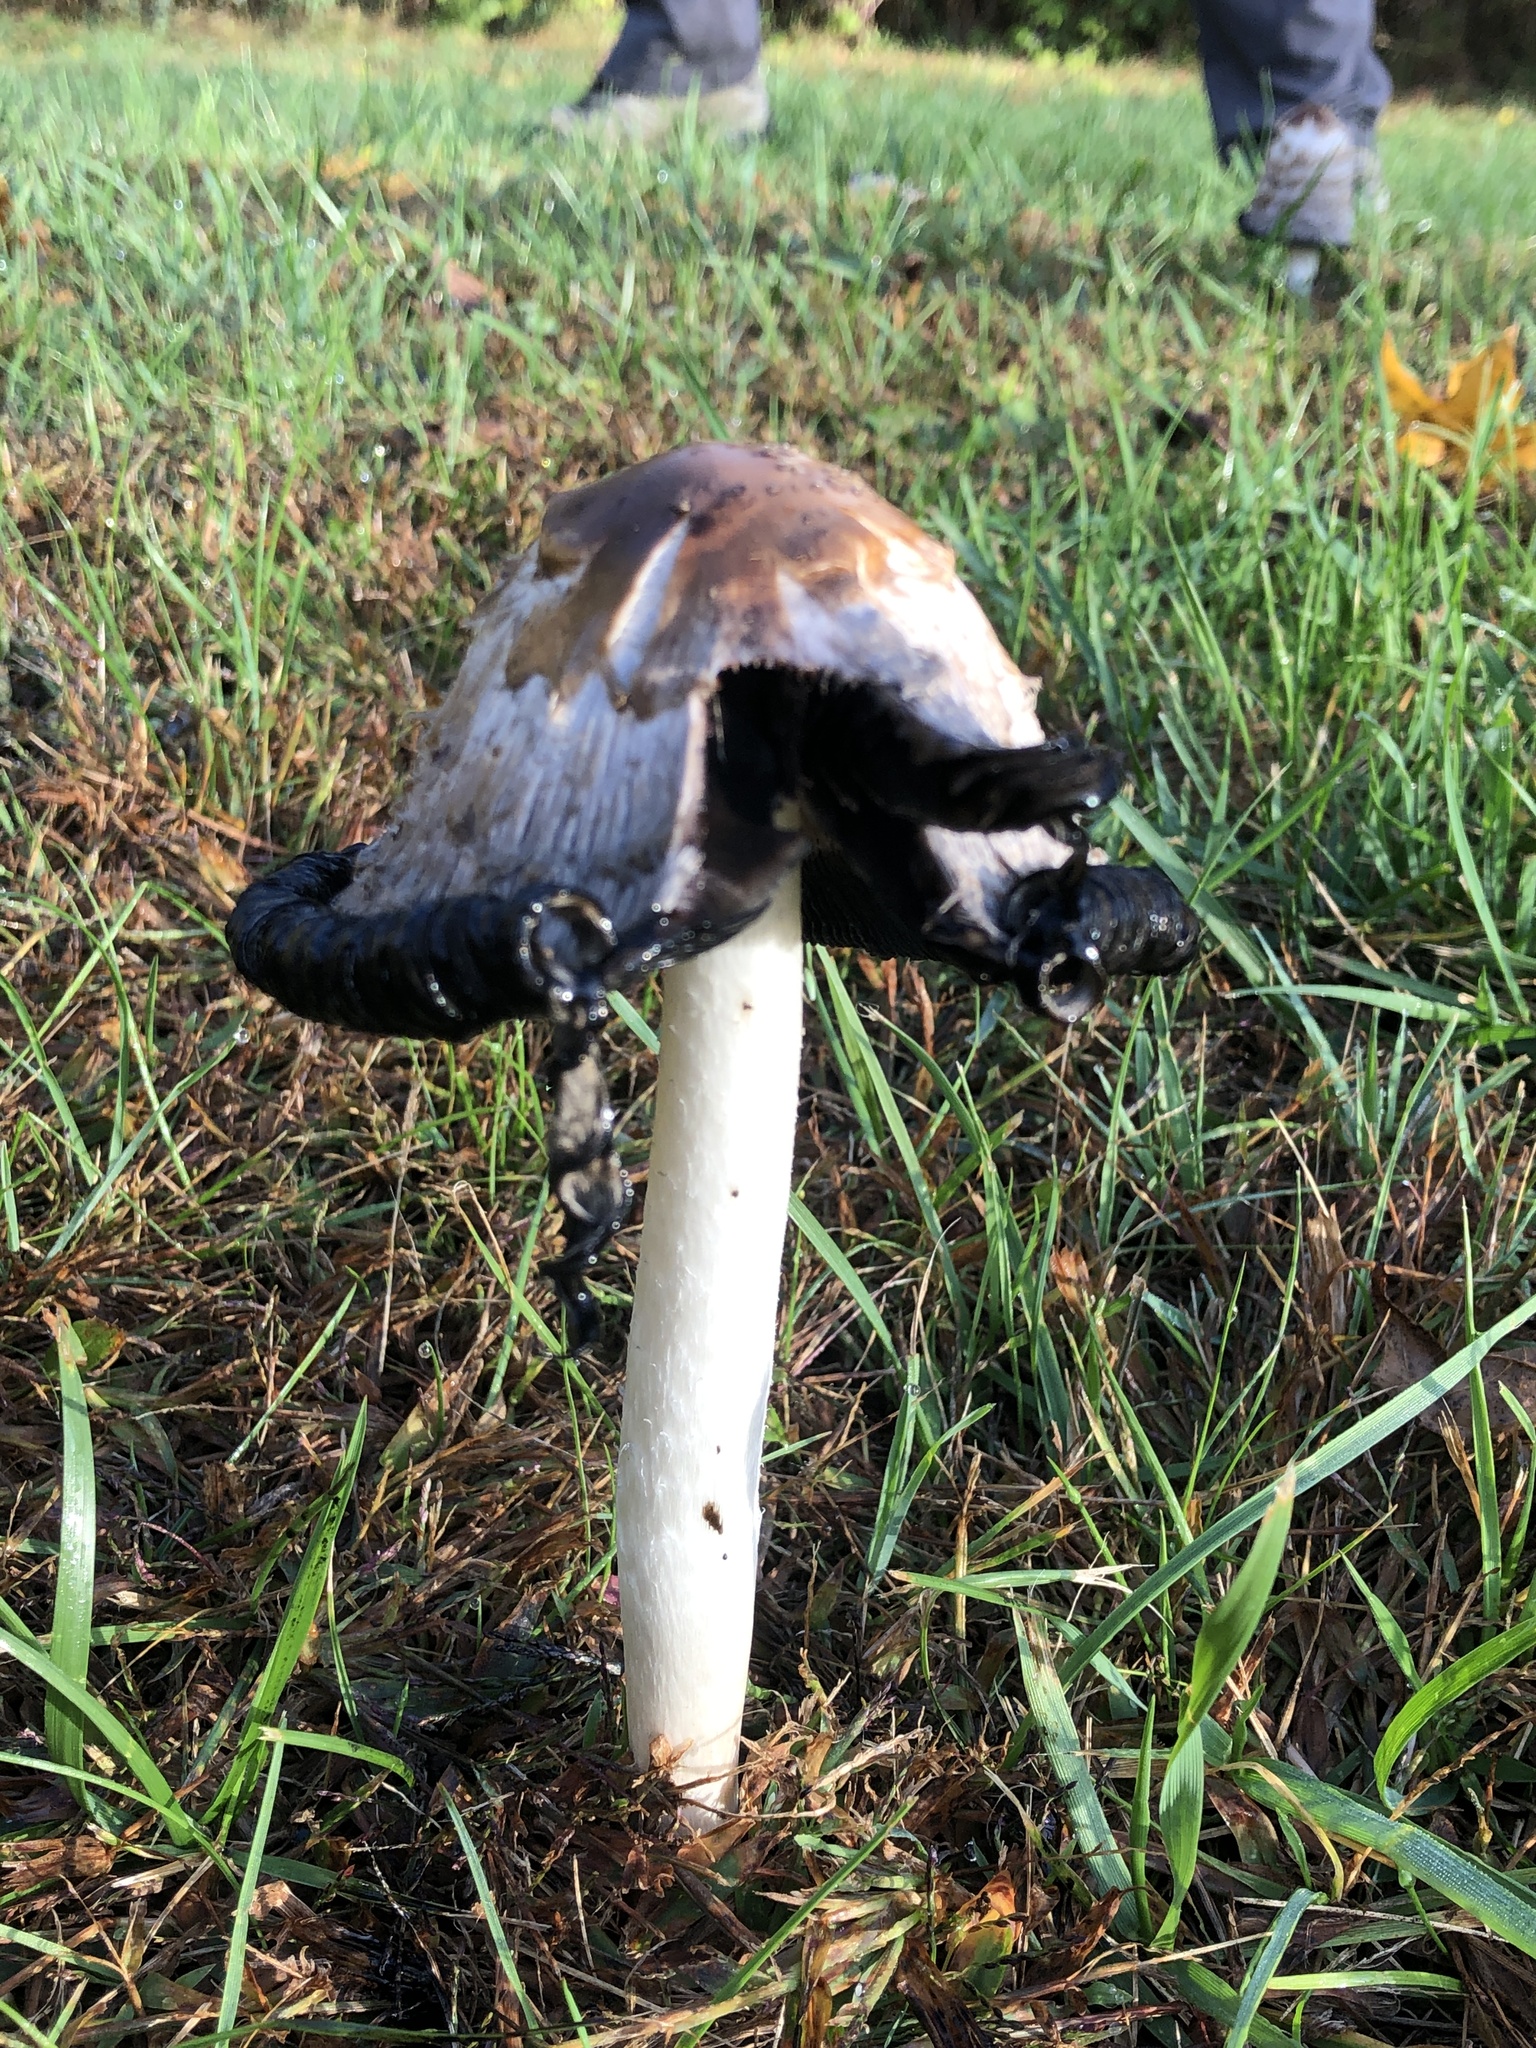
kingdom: Fungi
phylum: Basidiomycota
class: Agaricomycetes
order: Agaricales
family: Agaricaceae
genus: Coprinus
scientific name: Coprinus comatus
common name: Lawyer's wig
